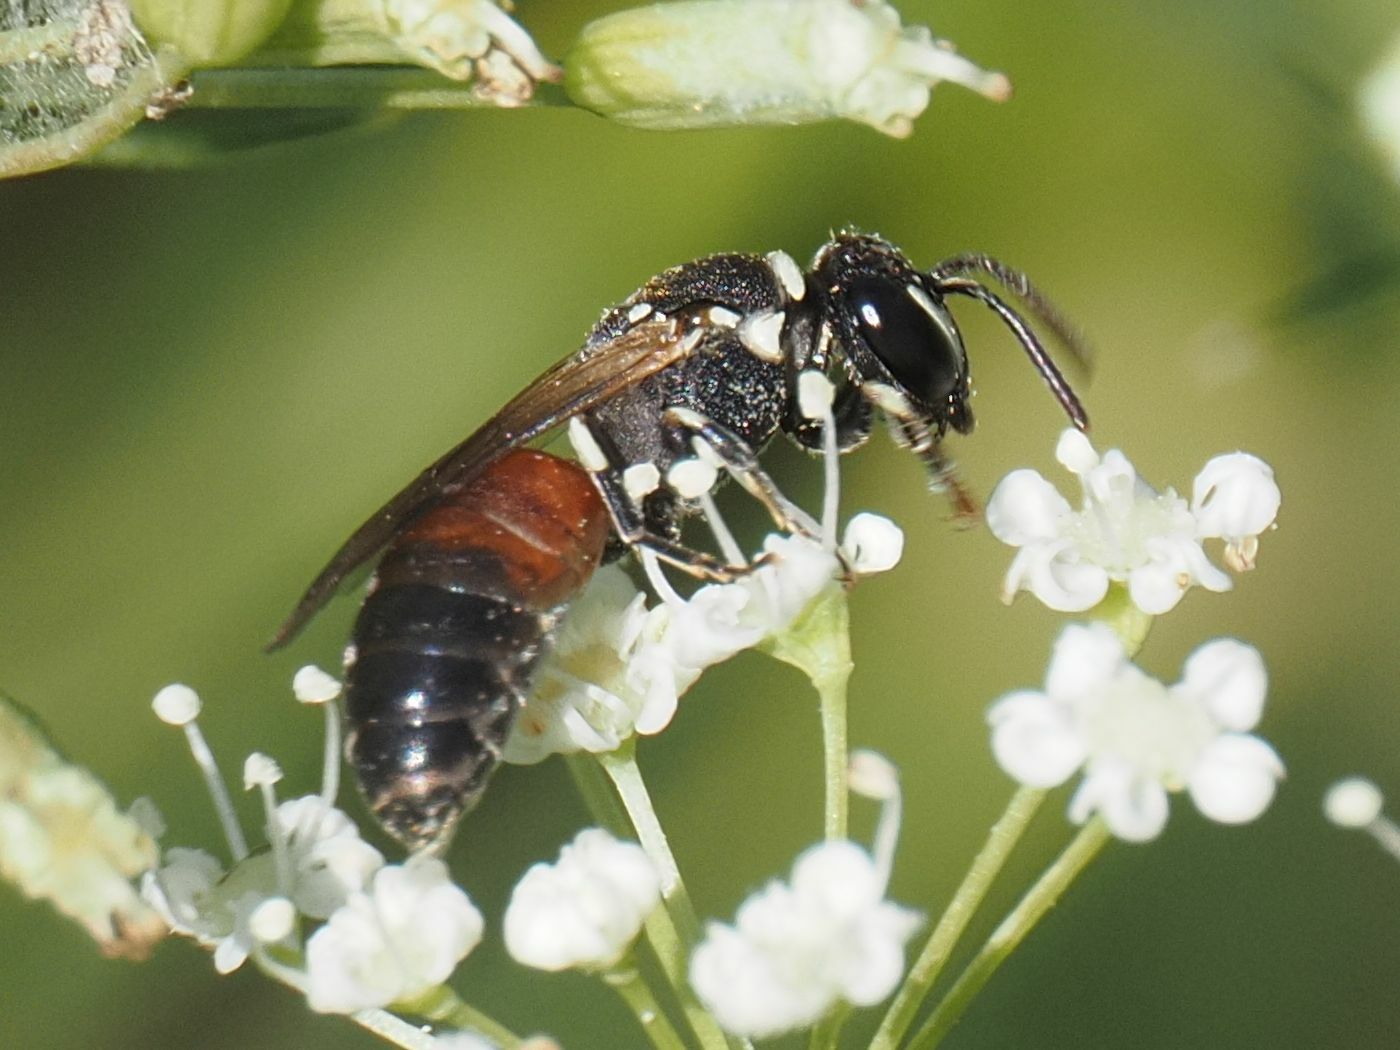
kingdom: Animalia
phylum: Arthropoda
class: Insecta
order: Hymenoptera
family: Colletidae
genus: Hylaeus
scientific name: Hylaeus variegatus
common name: Masked bee
